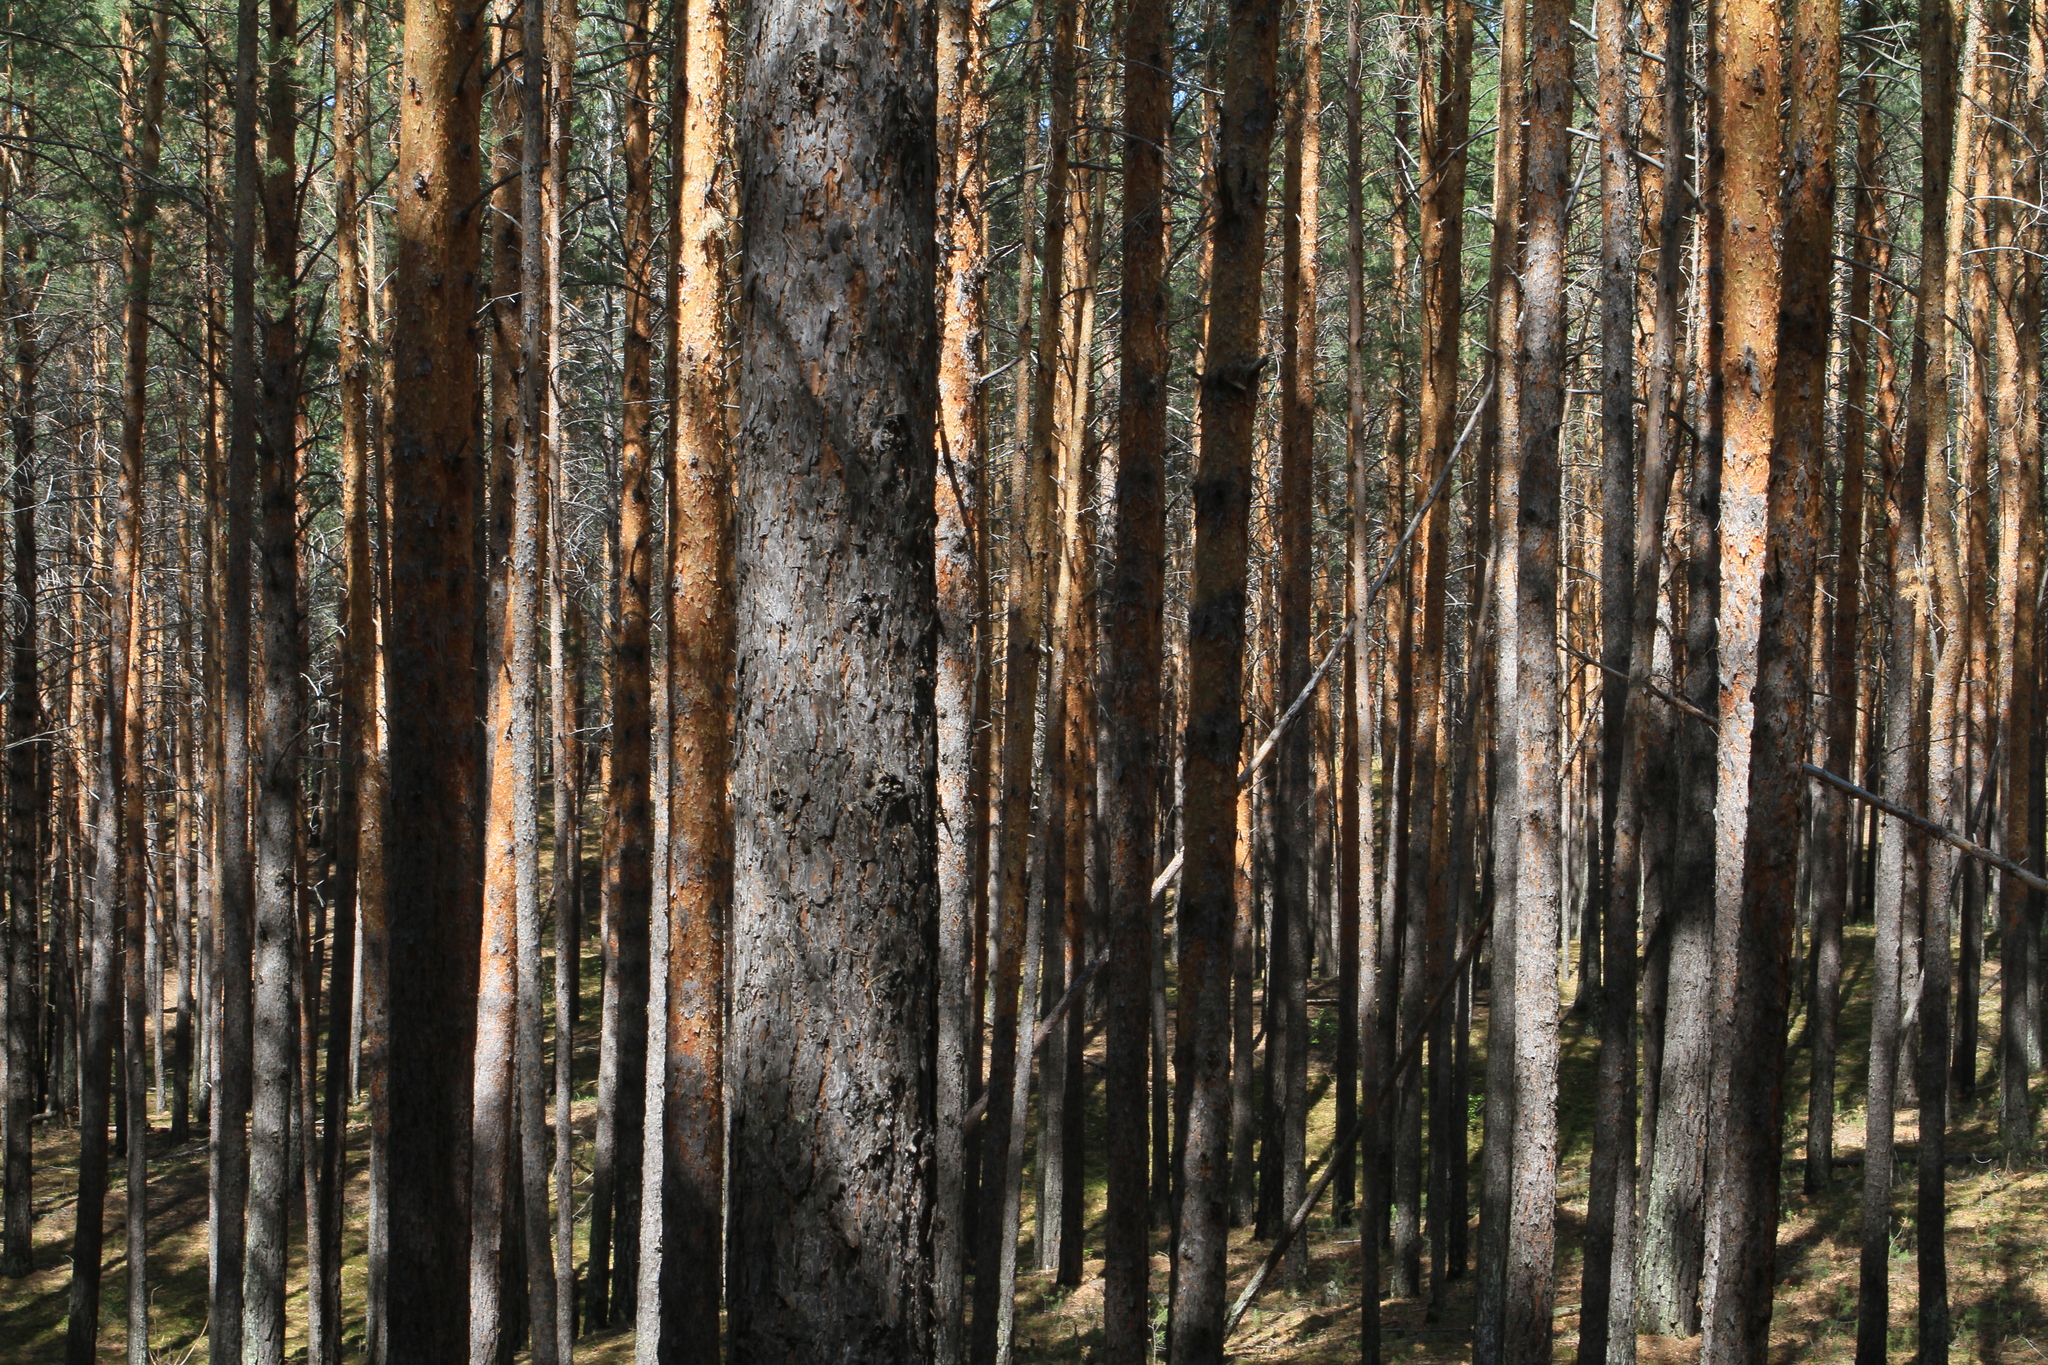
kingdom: Plantae
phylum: Tracheophyta
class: Pinopsida
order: Pinales
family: Pinaceae
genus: Pinus
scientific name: Pinus sylvestris
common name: Scots pine
